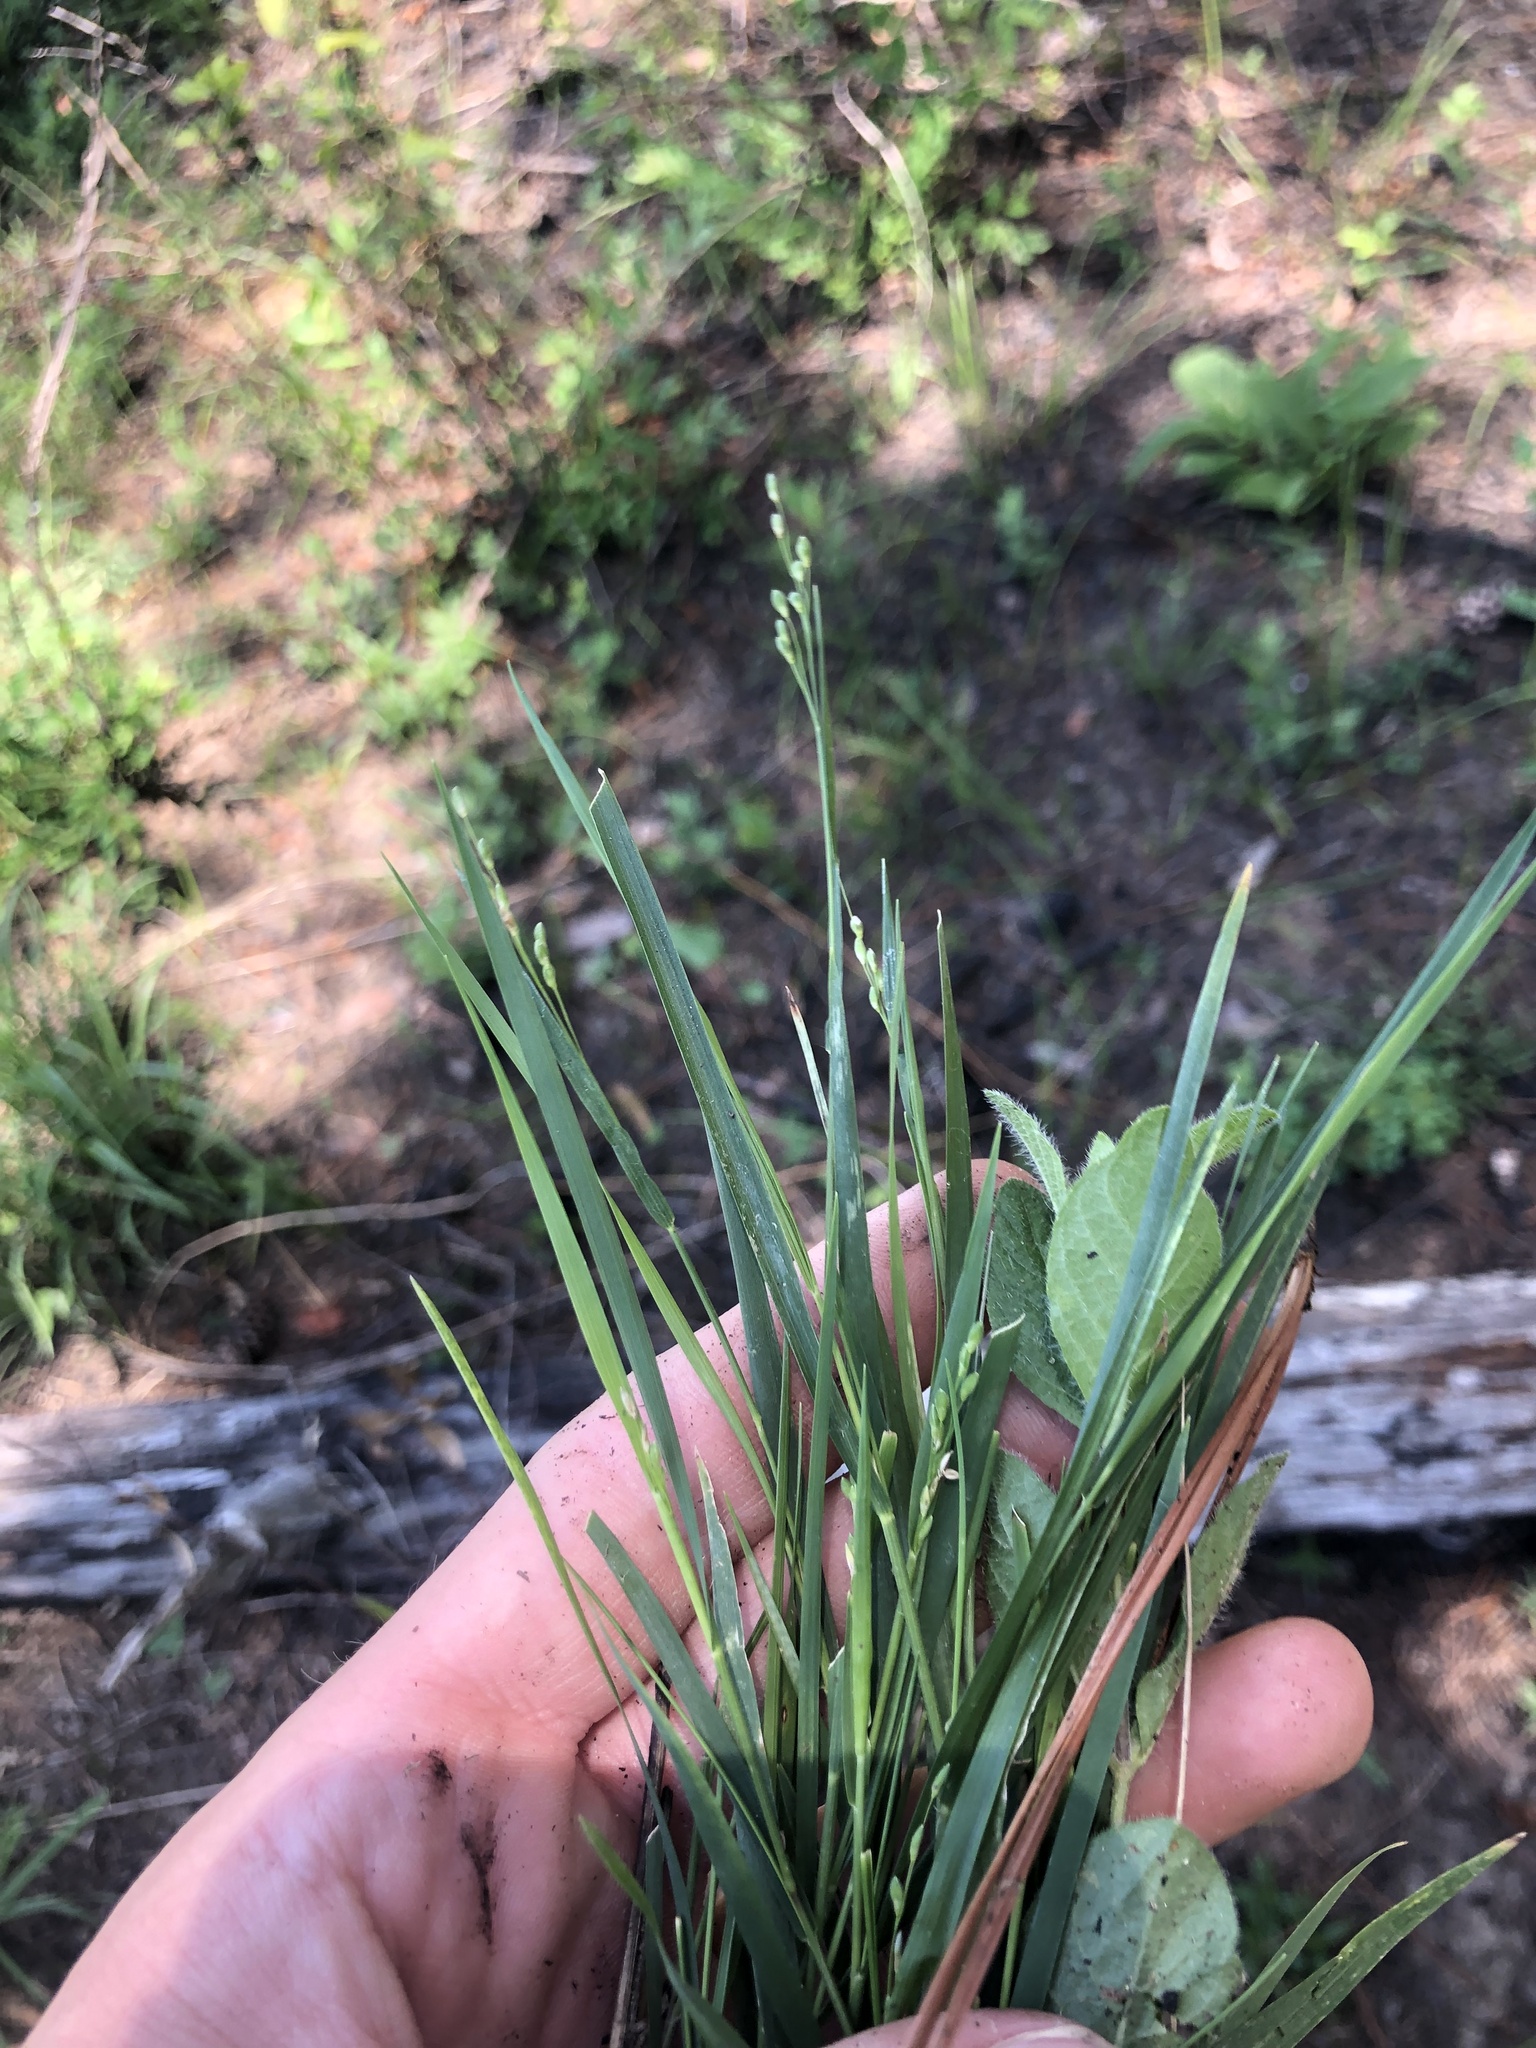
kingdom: Plantae
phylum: Tracheophyta
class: Liliopsida
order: Poales
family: Poaceae
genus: Dichanthelium
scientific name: Dichanthelium angustifolium
